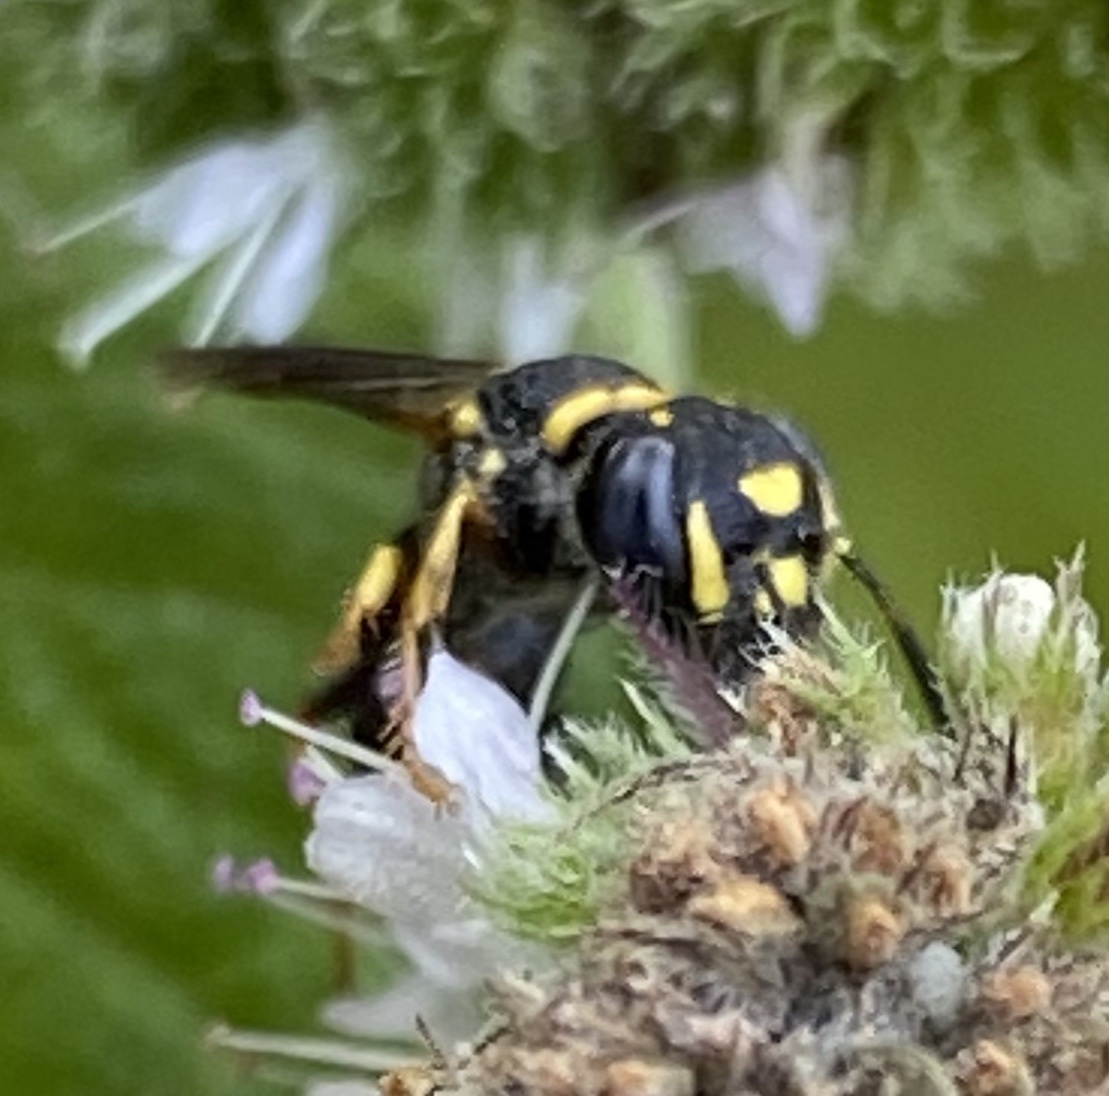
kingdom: Animalia
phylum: Arthropoda
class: Insecta
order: Hymenoptera
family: Crabronidae
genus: Philanthus
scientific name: Philanthus gibbosus
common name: Humped beewolf
